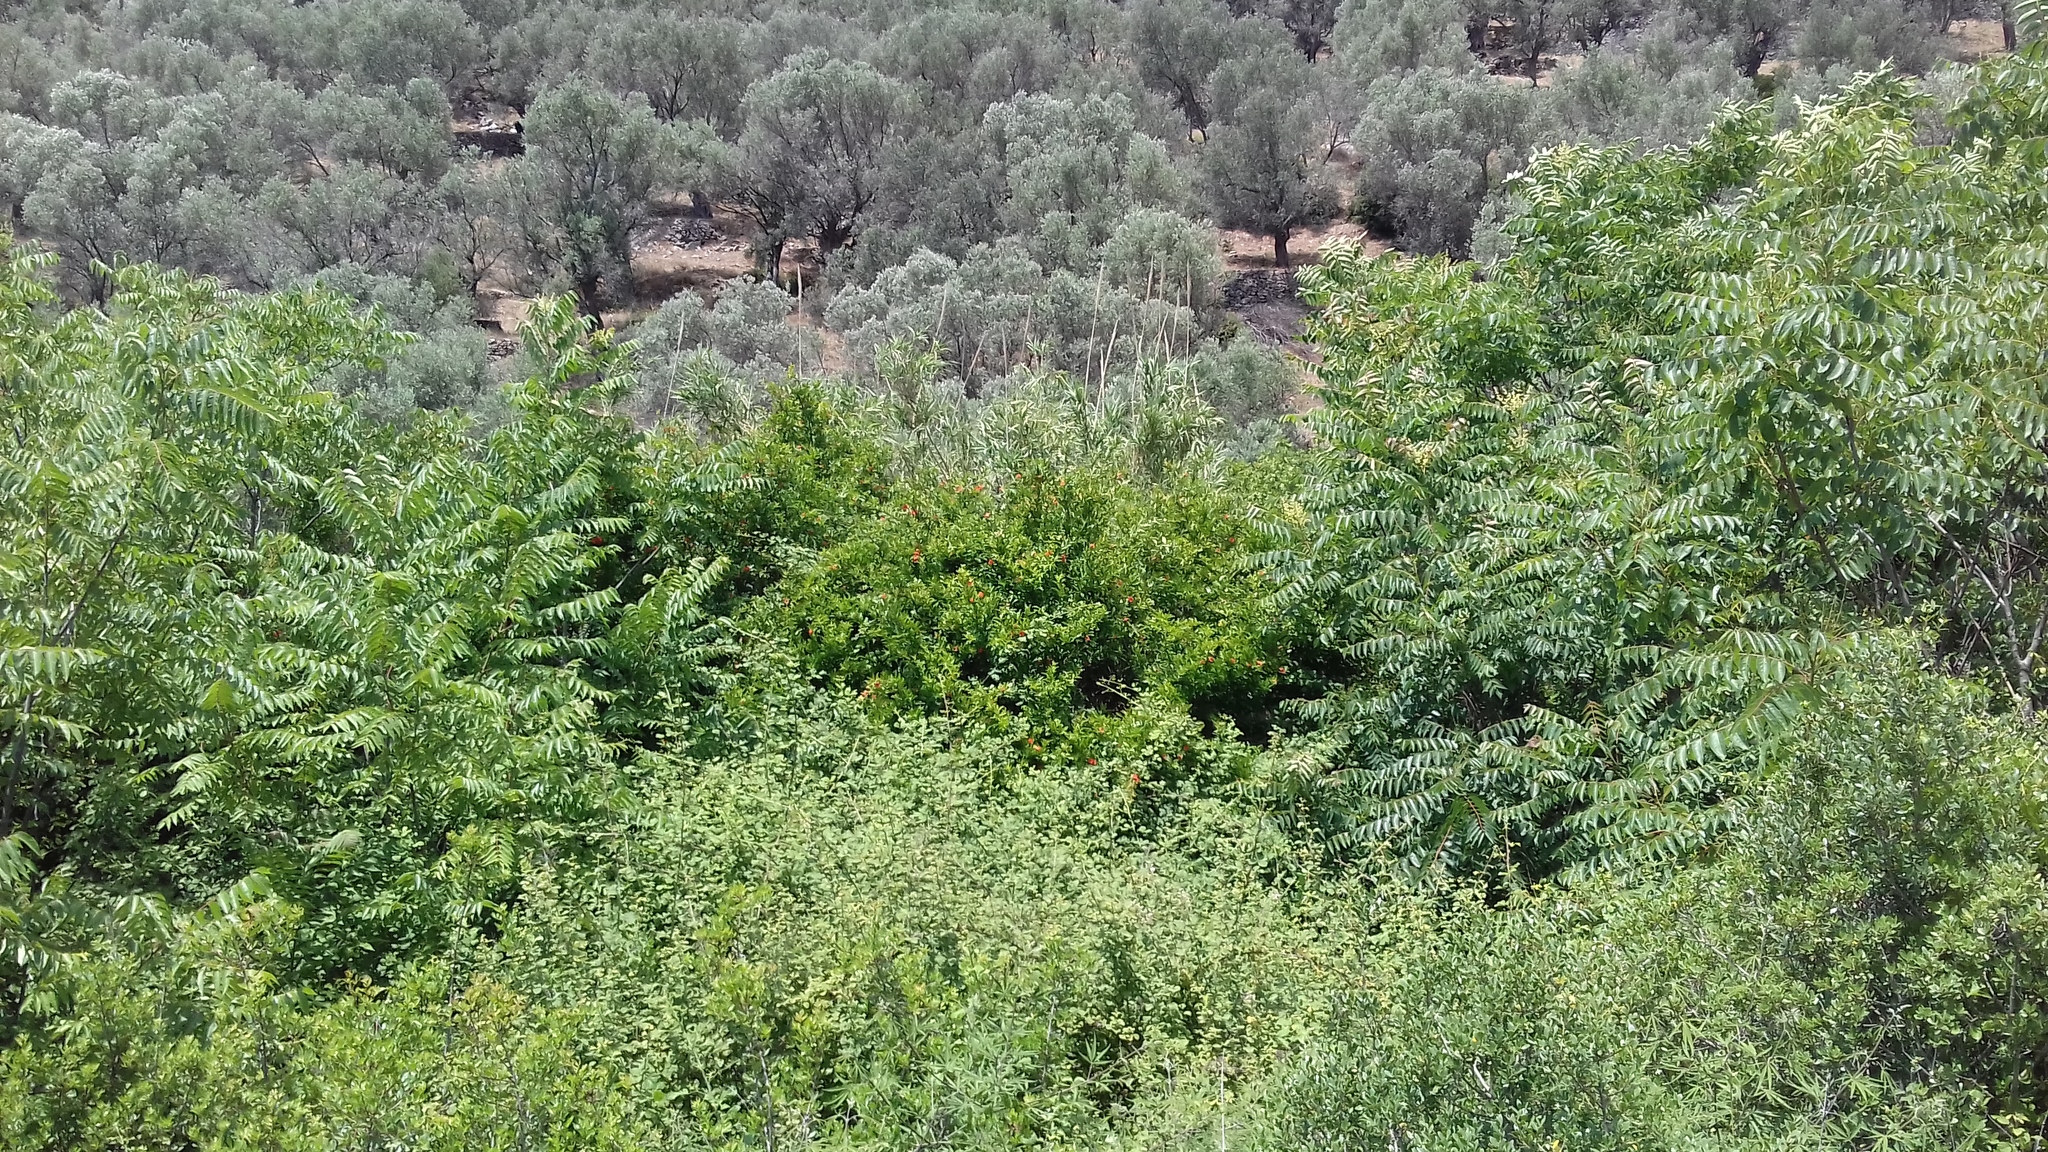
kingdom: Plantae
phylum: Tracheophyta
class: Magnoliopsida
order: Sapindales
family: Simaroubaceae
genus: Ailanthus
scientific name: Ailanthus altissima
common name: Tree-of-heaven
